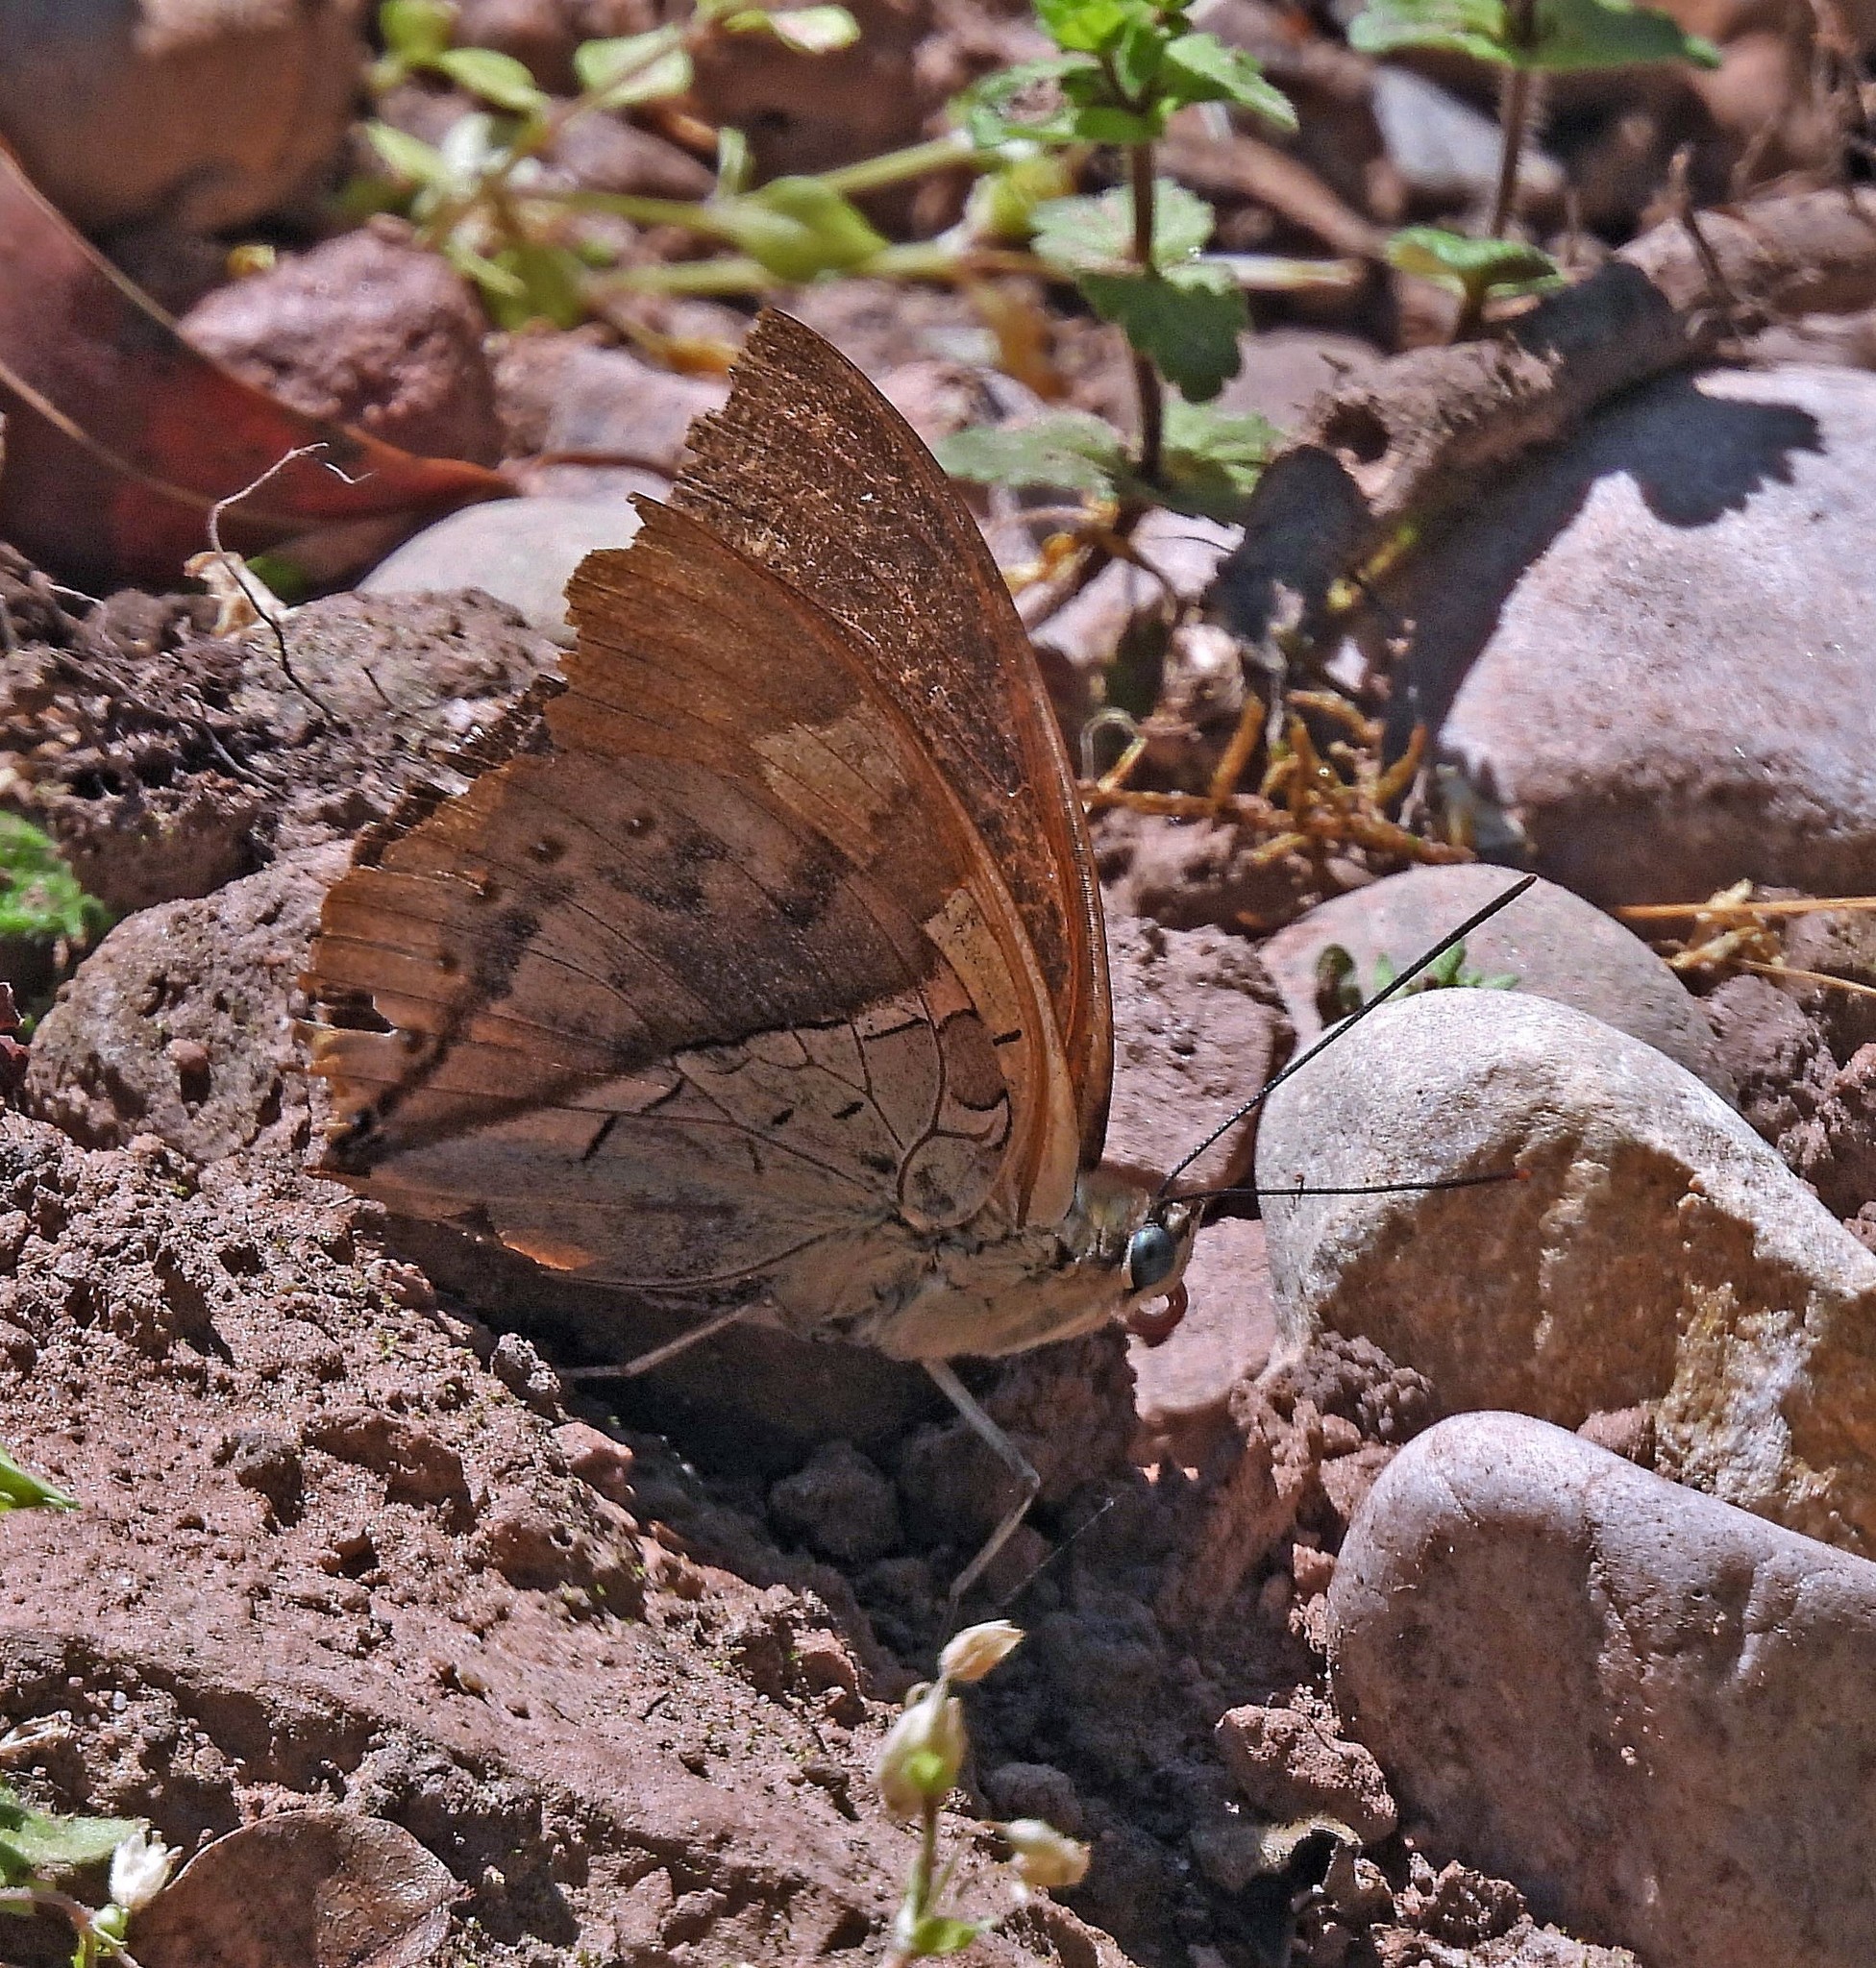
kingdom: Animalia
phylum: Arthropoda
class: Insecta
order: Lepidoptera
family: Nymphalidae
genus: Prepona
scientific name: Prepona
